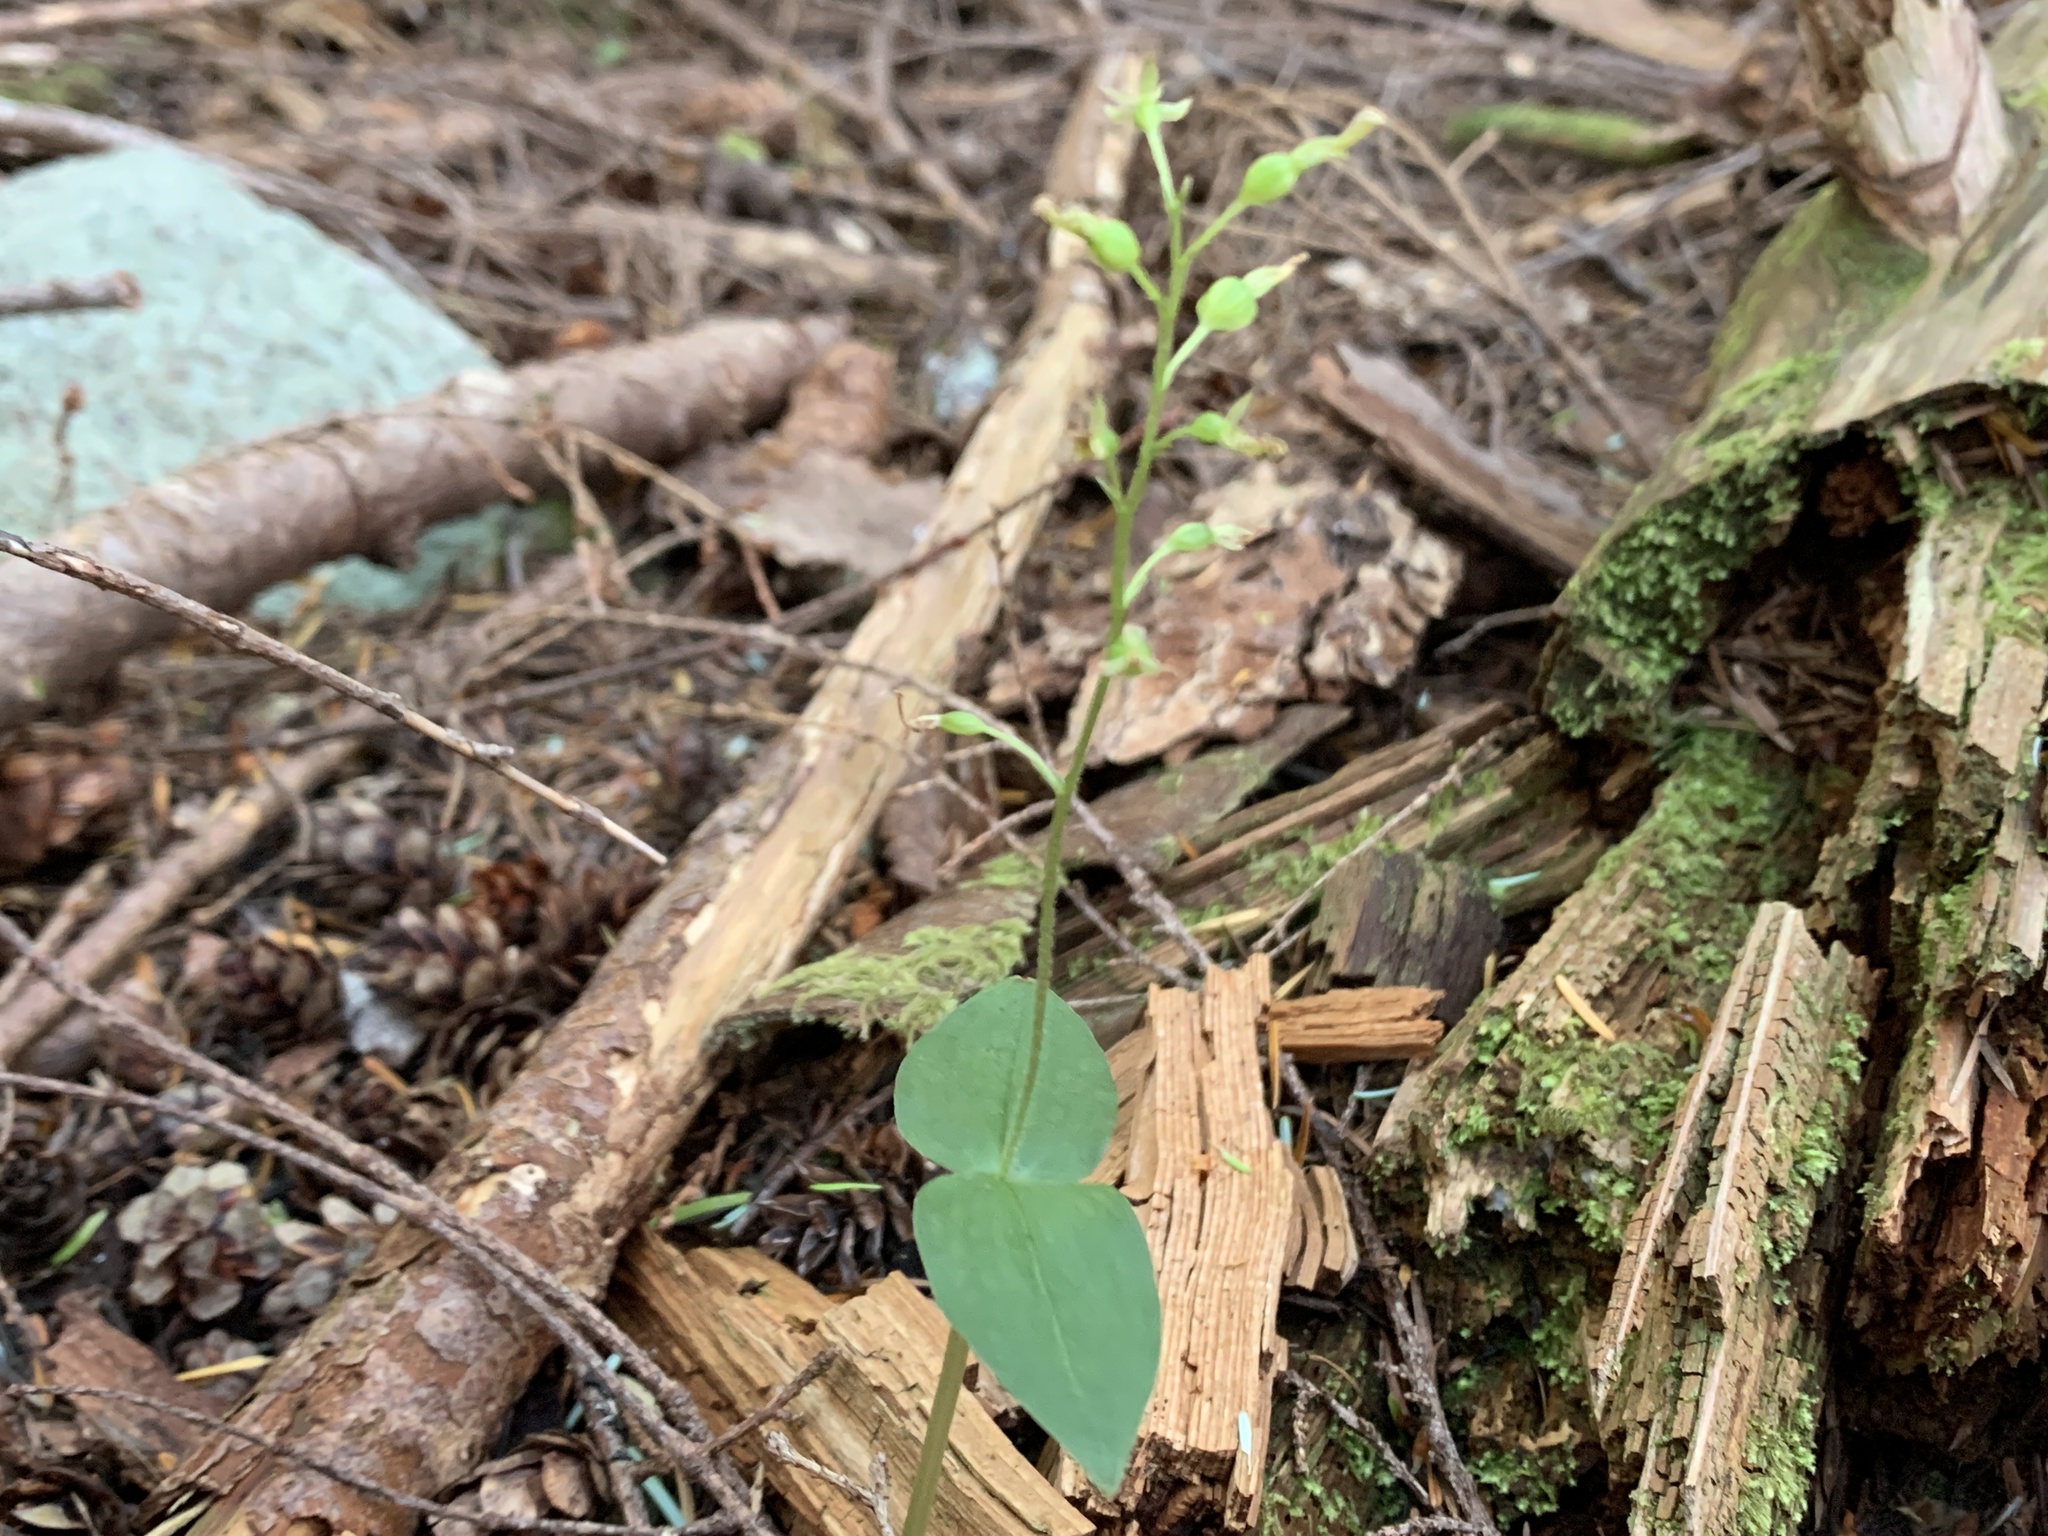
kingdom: Plantae
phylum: Tracheophyta
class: Liliopsida
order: Asparagales
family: Orchidaceae
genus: Neottia
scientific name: Neottia banksiana
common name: Northwestern twayblade
